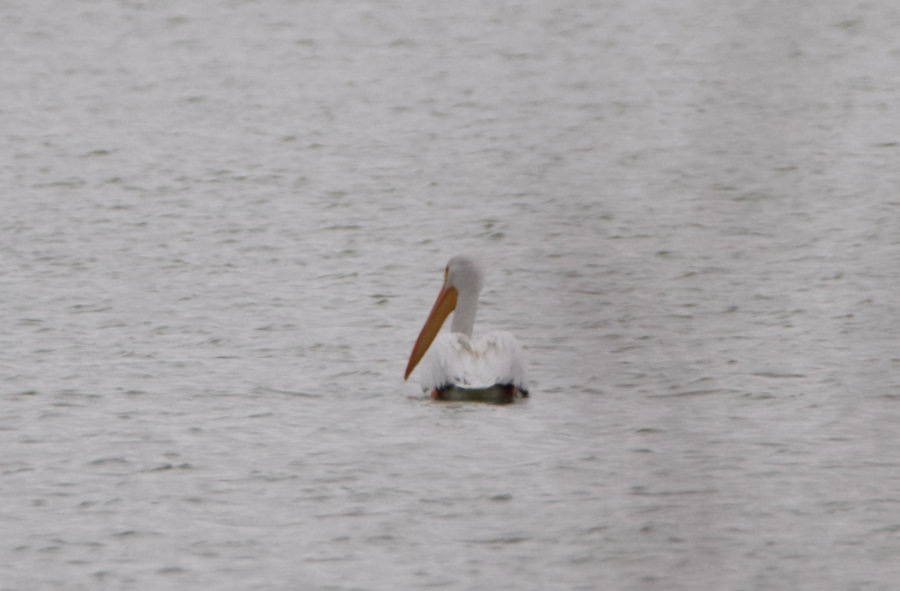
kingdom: Animalia
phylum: Chordata
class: Aves
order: Pelecaniformes
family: Pelecanidae
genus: Pelecanus
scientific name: Pelecanus erythrorhynchos
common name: American white pelican
